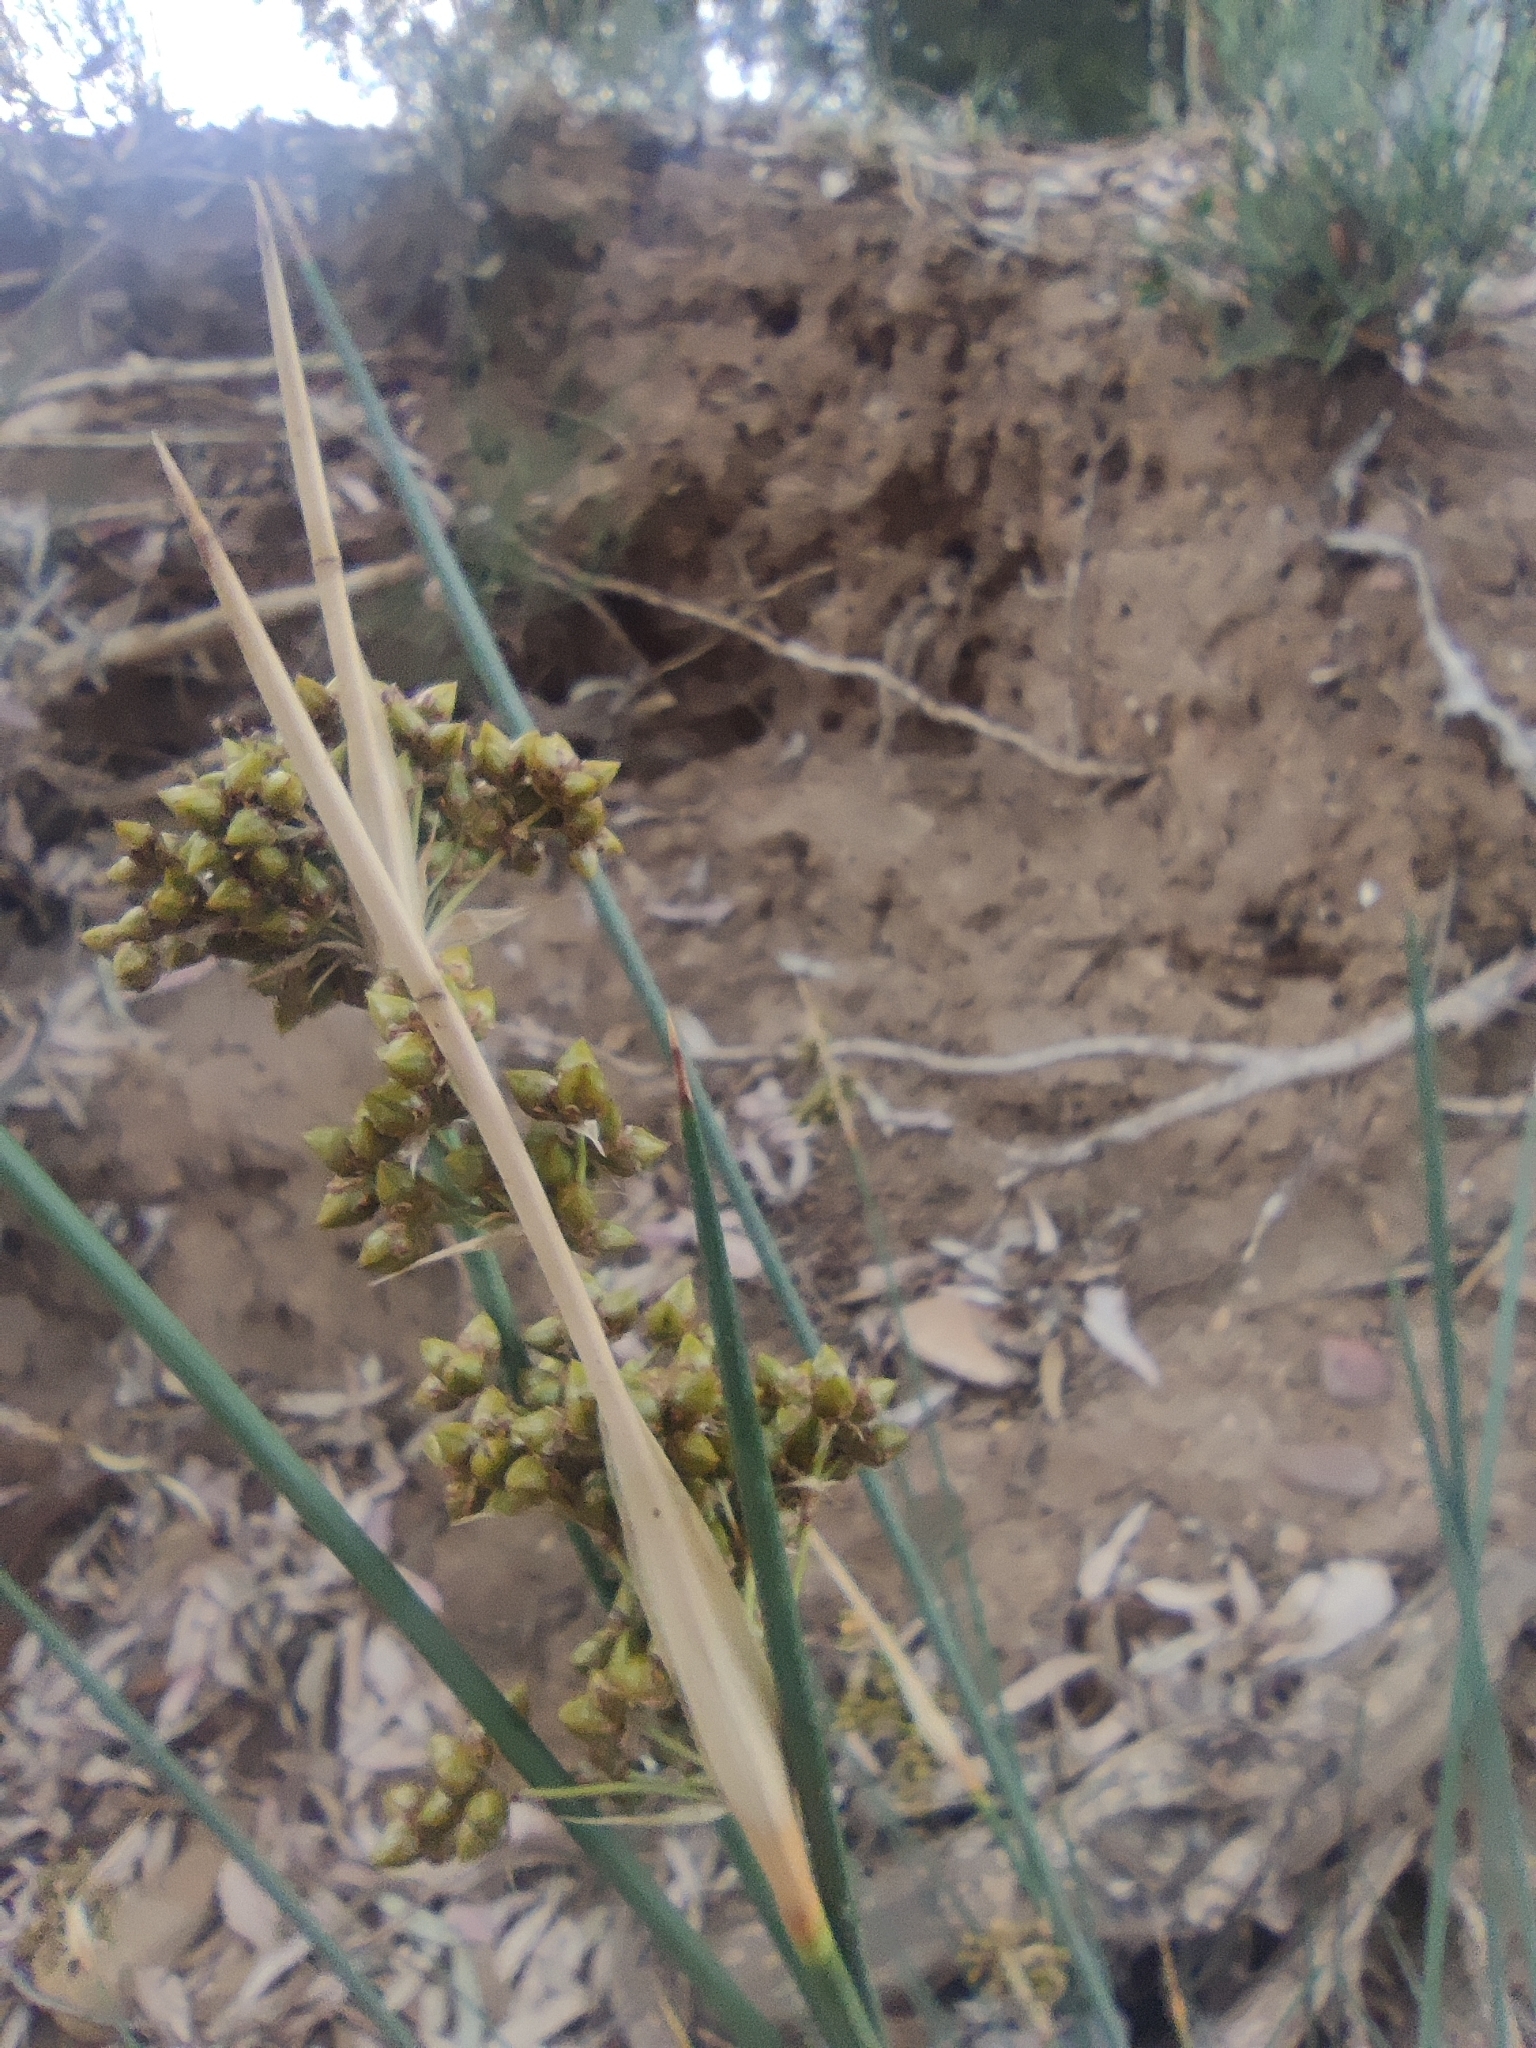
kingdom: Plantae
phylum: Tracheophyta
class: Liliopsida
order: Poales
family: Juncaceae
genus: Juncus
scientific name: Juncus acutus
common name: Sharp rush
